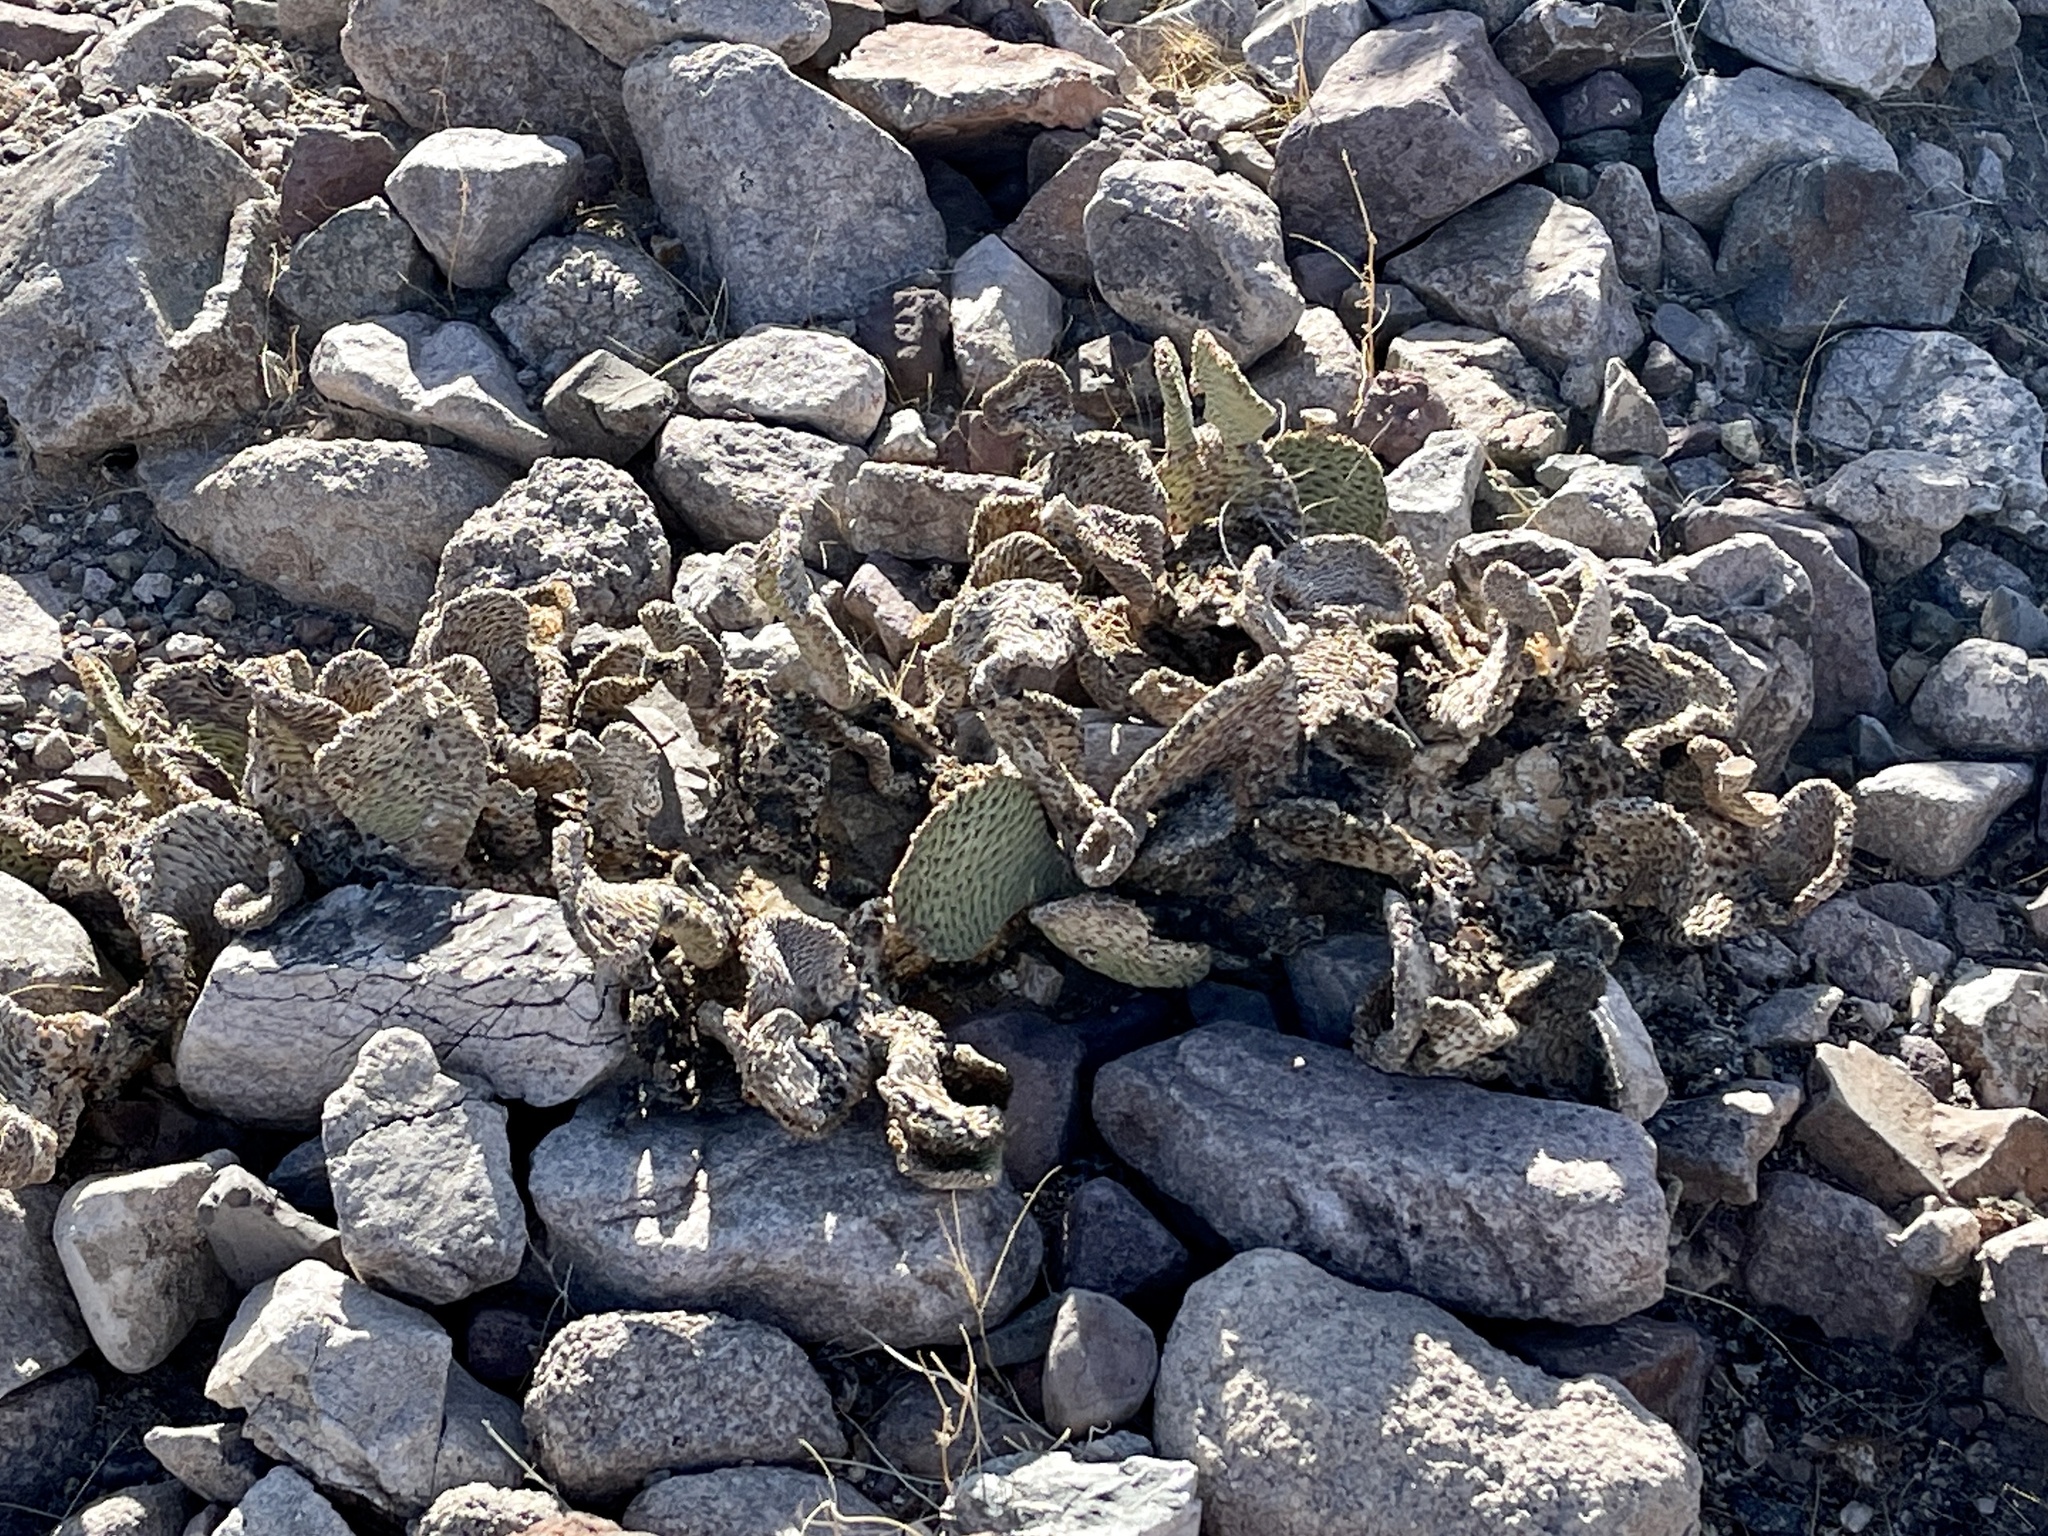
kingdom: Plantae
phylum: Tracheophyta
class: Magnoliopsida
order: Caryophyllales
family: Cactaceae
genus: Opuntia
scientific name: Opuntia basilaris
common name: Beavertail prickly-pear
